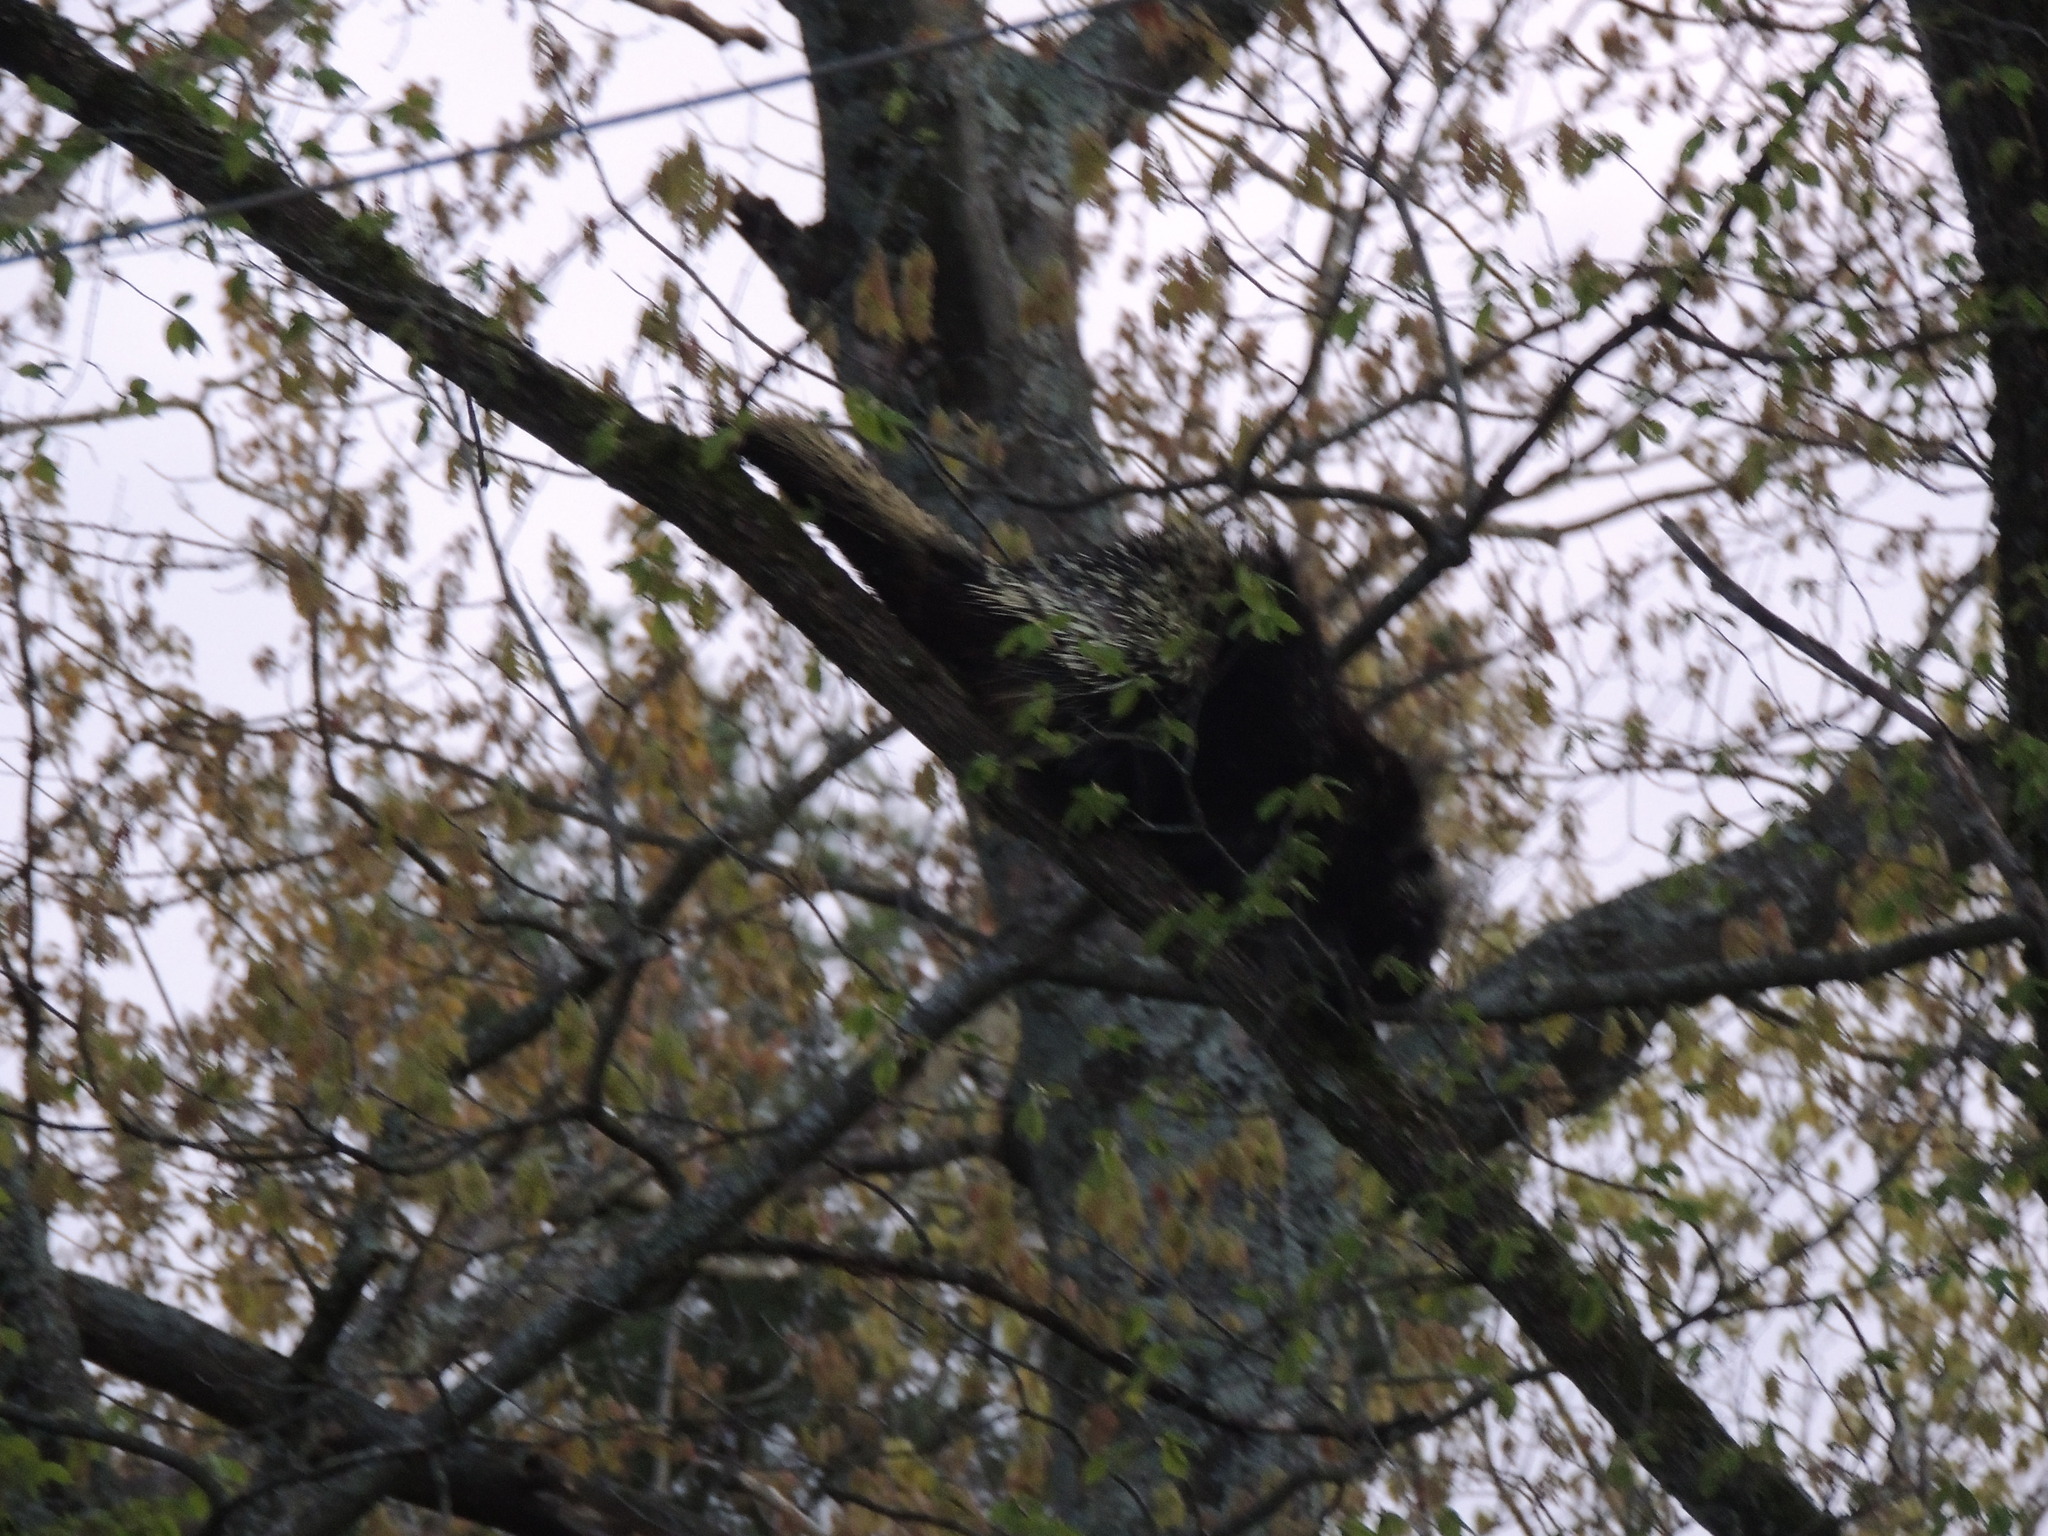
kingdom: Animalia
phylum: Chordata
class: Mammalia
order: Rodentia
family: Erethizontidae
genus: Erethizon
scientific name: Erethizon dorsatus
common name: North american porcupine
